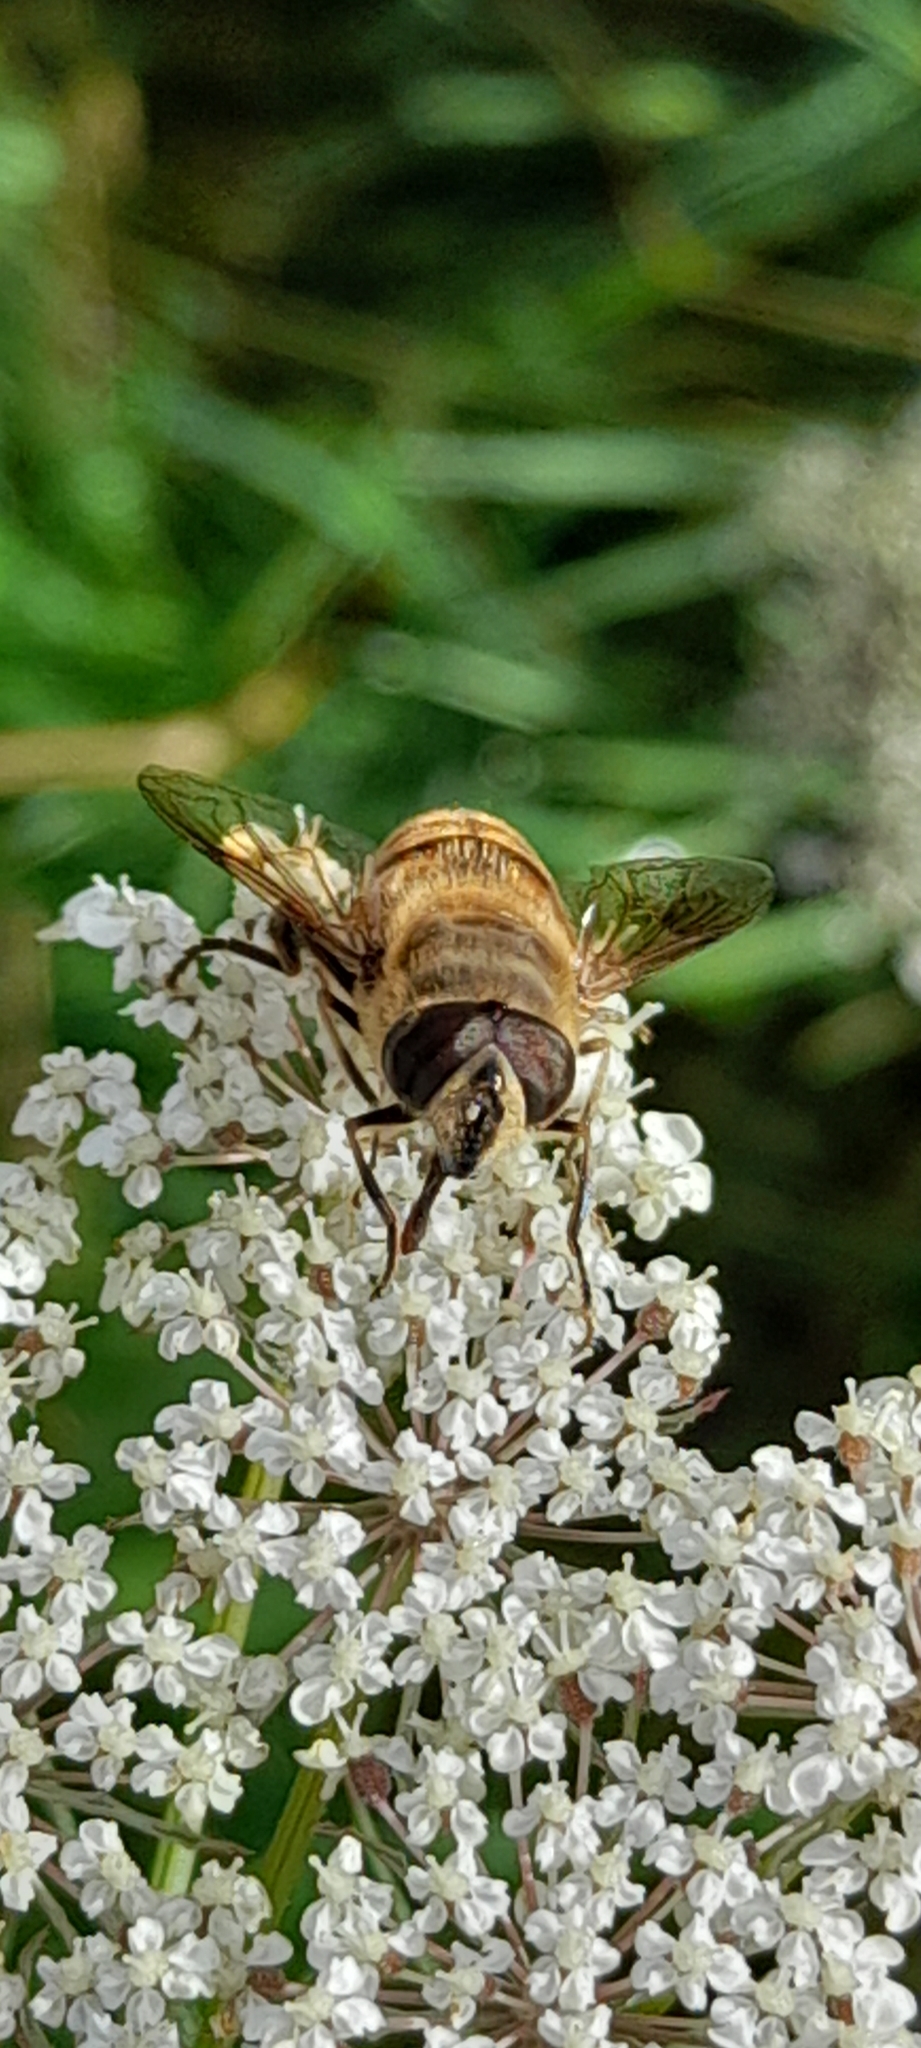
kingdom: Animalia
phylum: Arthropoda
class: Insecta
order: Diptera
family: Syrphidae
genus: Eristalis
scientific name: Eristalis tenax
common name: Drone fly
